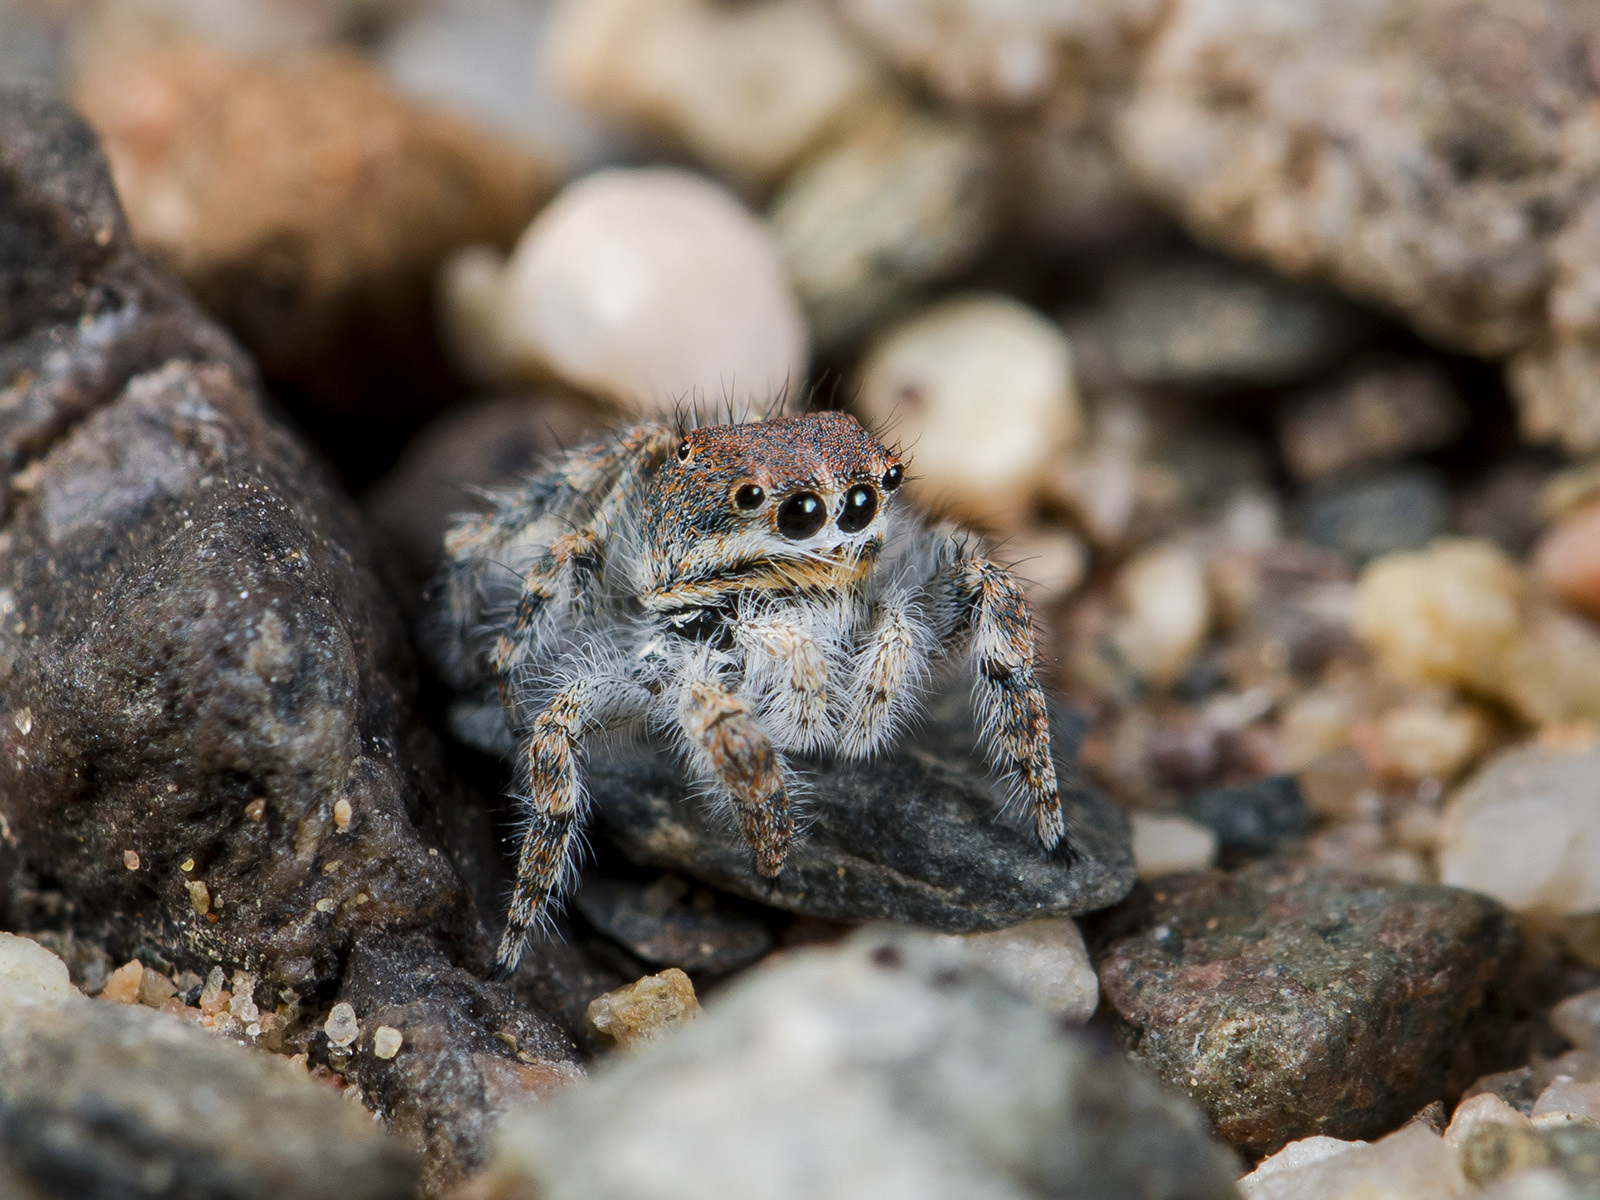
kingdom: Animalia
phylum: Arthropoda
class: Arachnida
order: Araneae
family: Salticidae
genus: Yllenus
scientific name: Yllenus zyuzini
